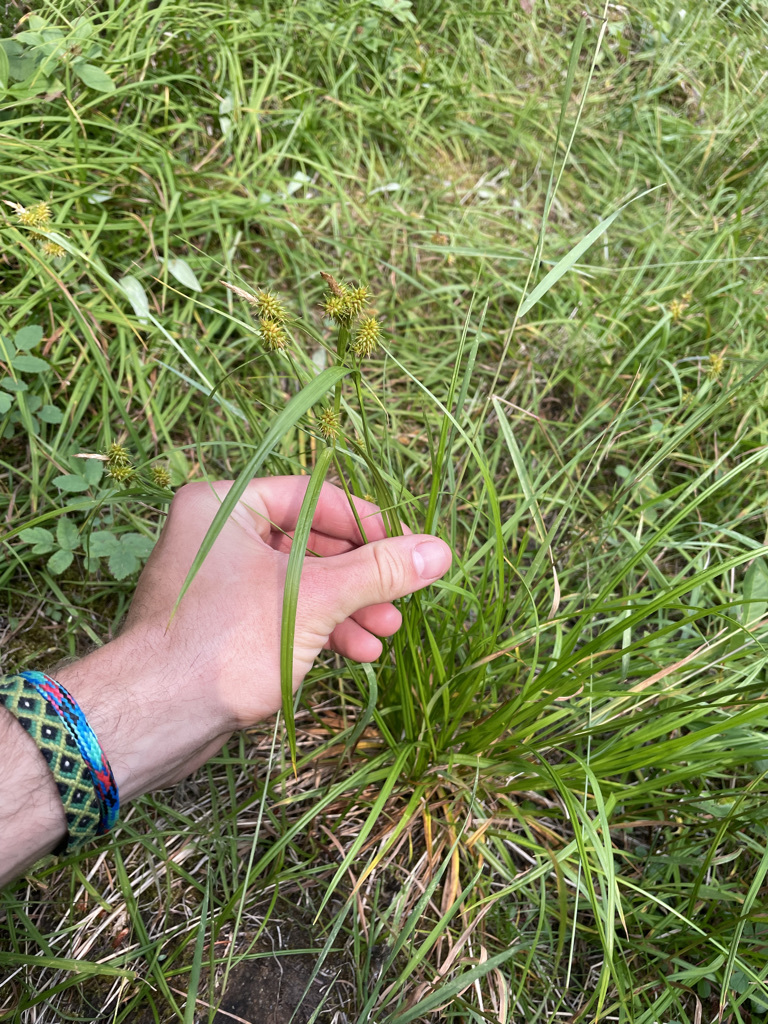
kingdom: Plantae
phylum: Tracheophyta
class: Liliopsida
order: Poales
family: Cyperaceae
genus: Carex
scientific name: Carex flava
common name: Large yellow-sedge
